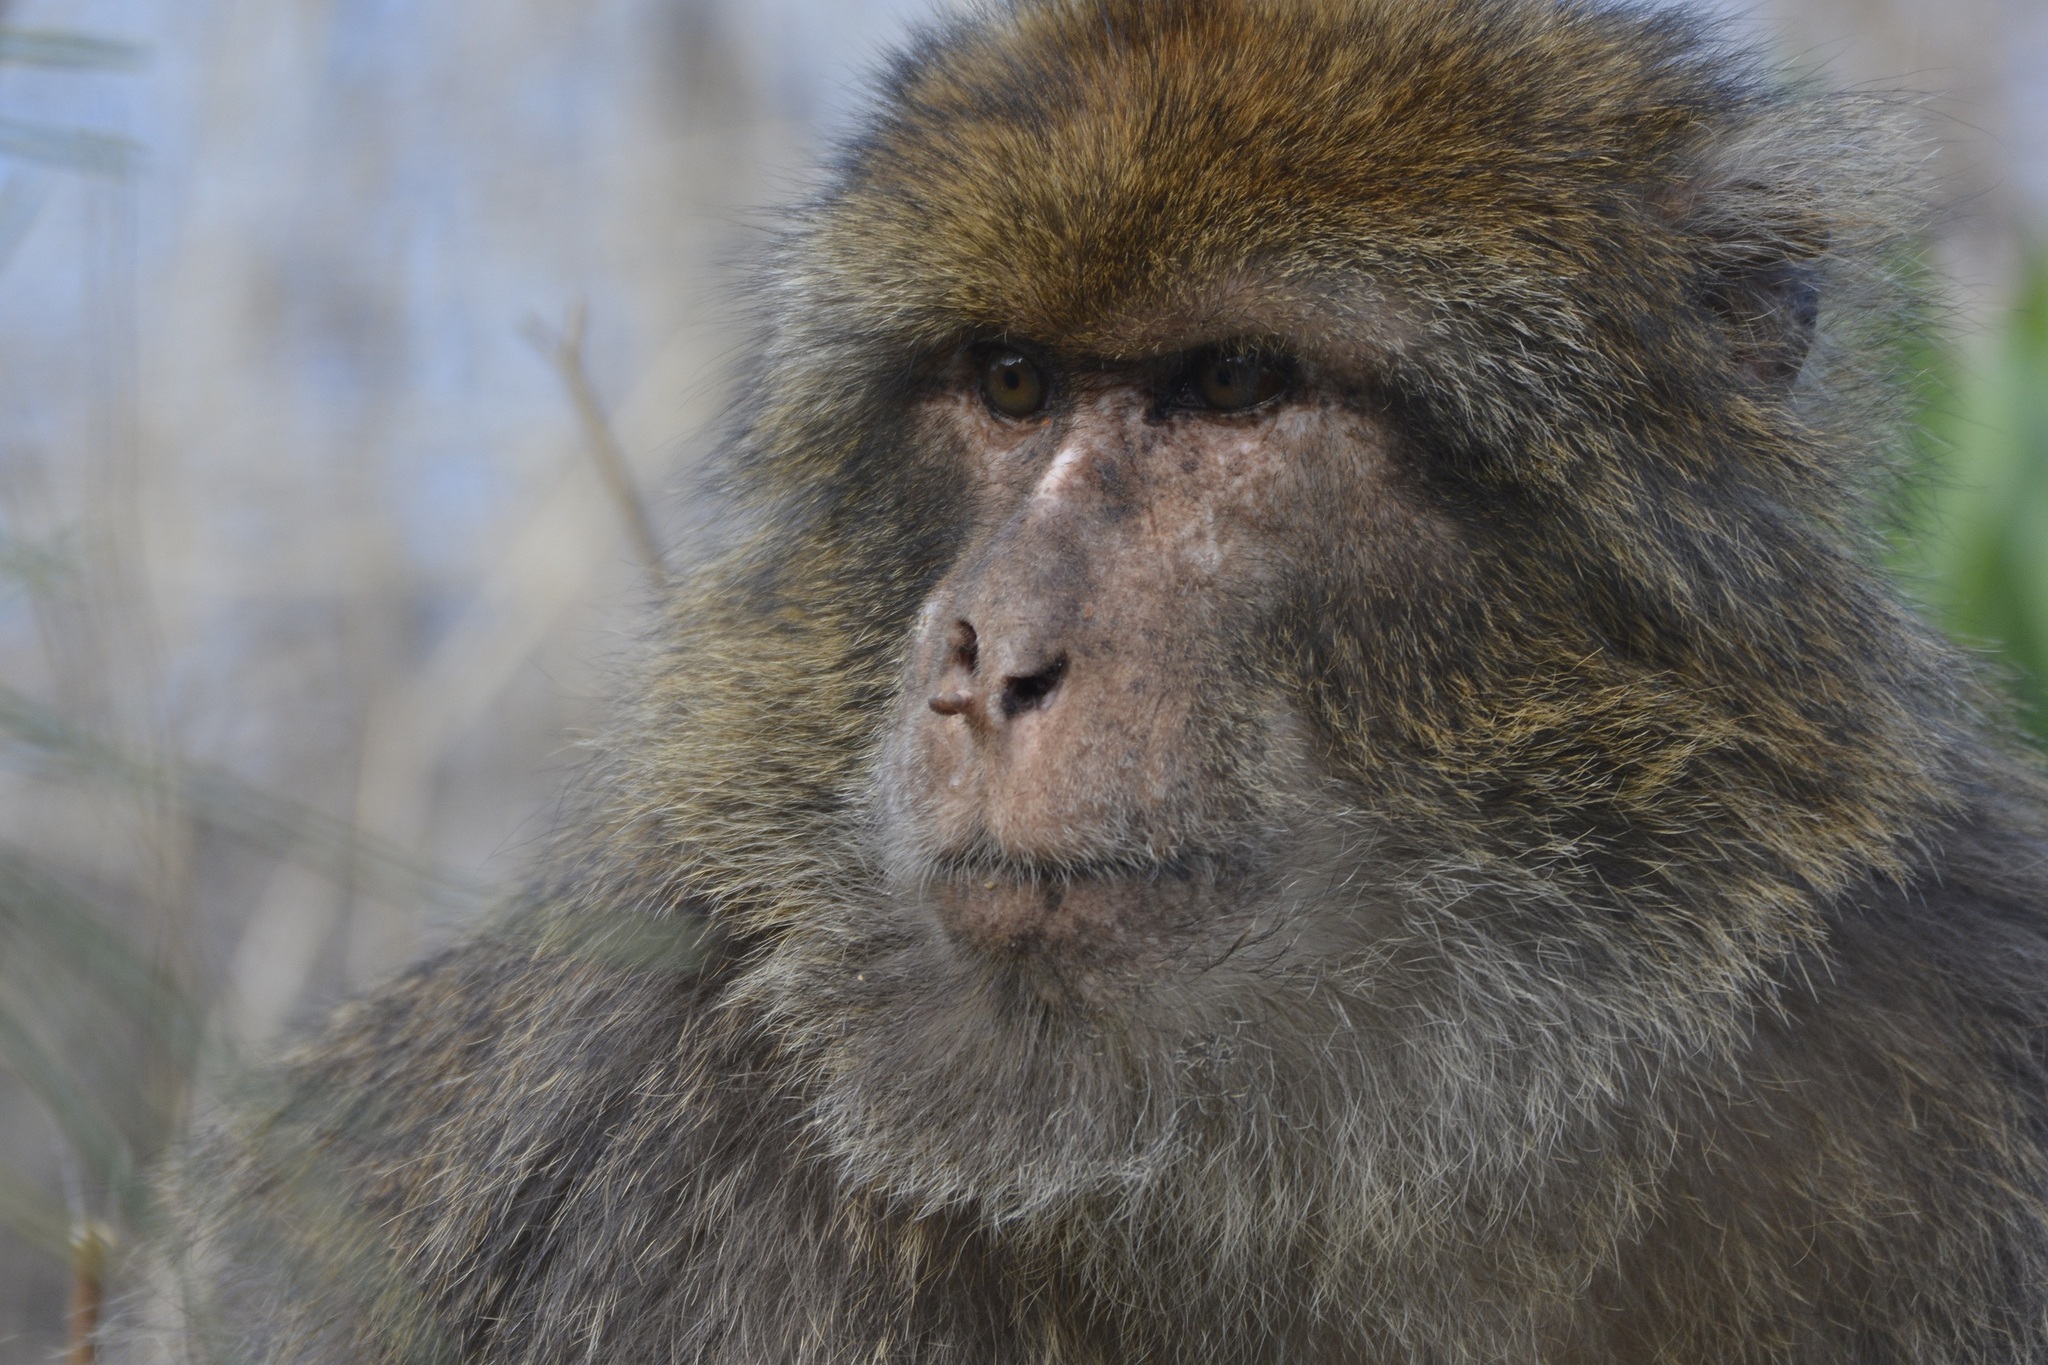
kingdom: Animalia
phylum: Chordata
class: Mammalia
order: Primates
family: Cercopithecidae
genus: Macaca
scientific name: Macaca sylvanus
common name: Barbary macaque
